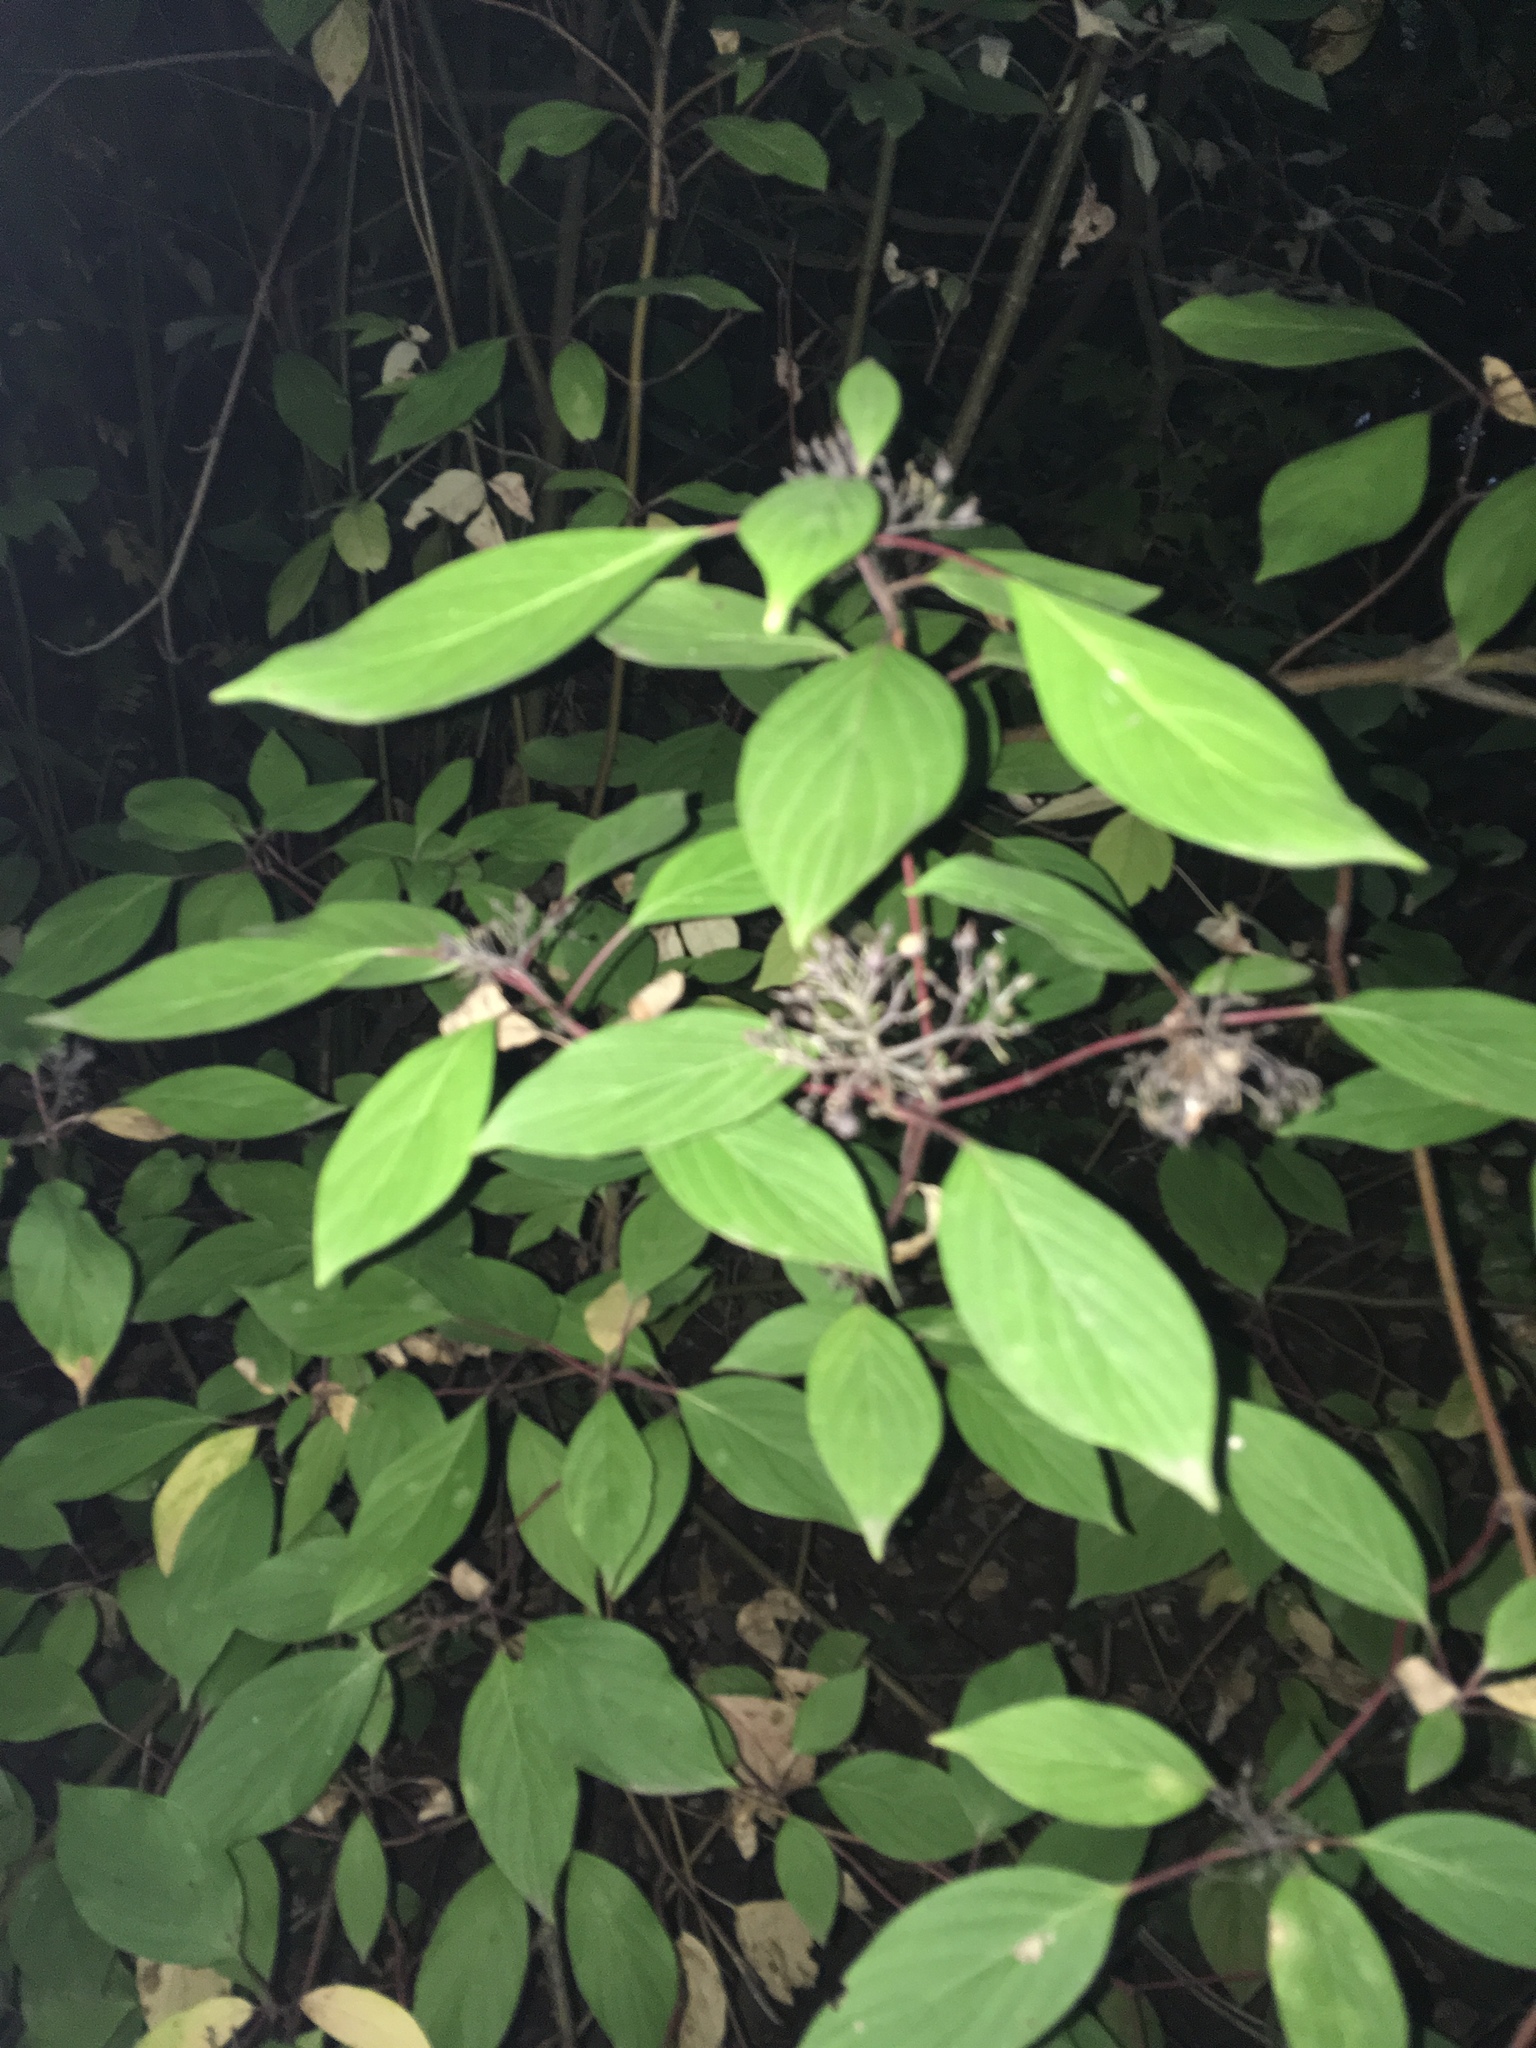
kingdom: Plantae
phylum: Tracheophyta
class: Magnoliopsida
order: Cornales
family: Cornaceae
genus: Cornus
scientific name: Cornus sericea
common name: Red-osier dogwood
